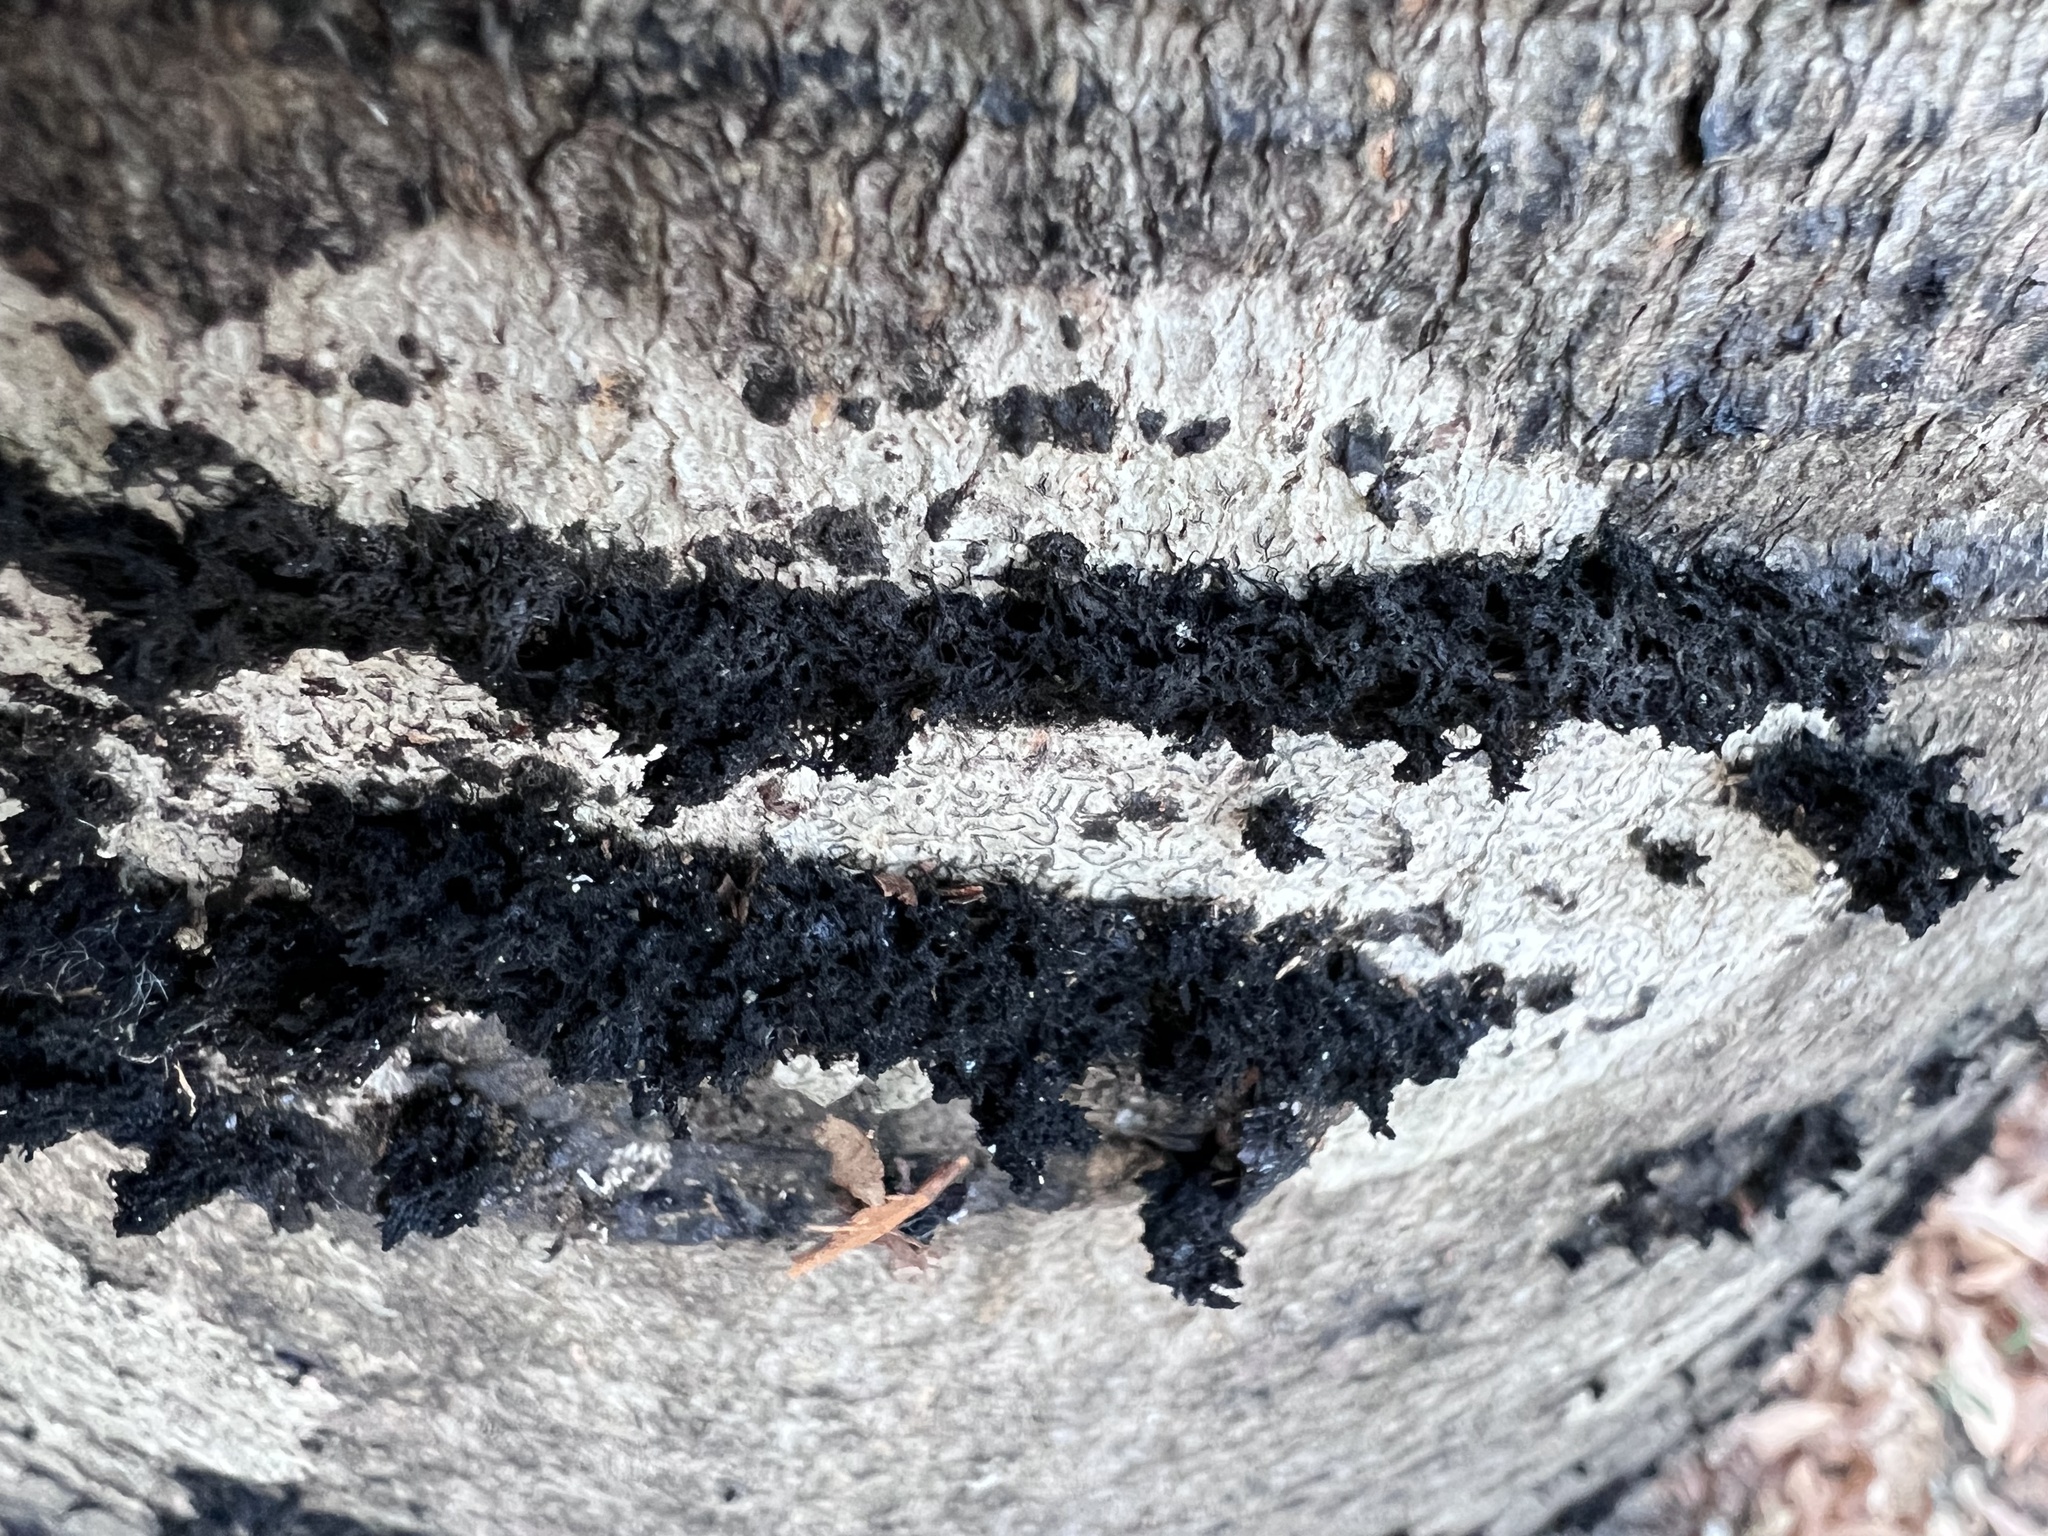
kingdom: Fungi
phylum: Ascomycota
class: Dothideomycetes
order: Capnodiales
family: Capnodiaceae
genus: Scorias
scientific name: Scorias spongiosa
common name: Black sooty mold
